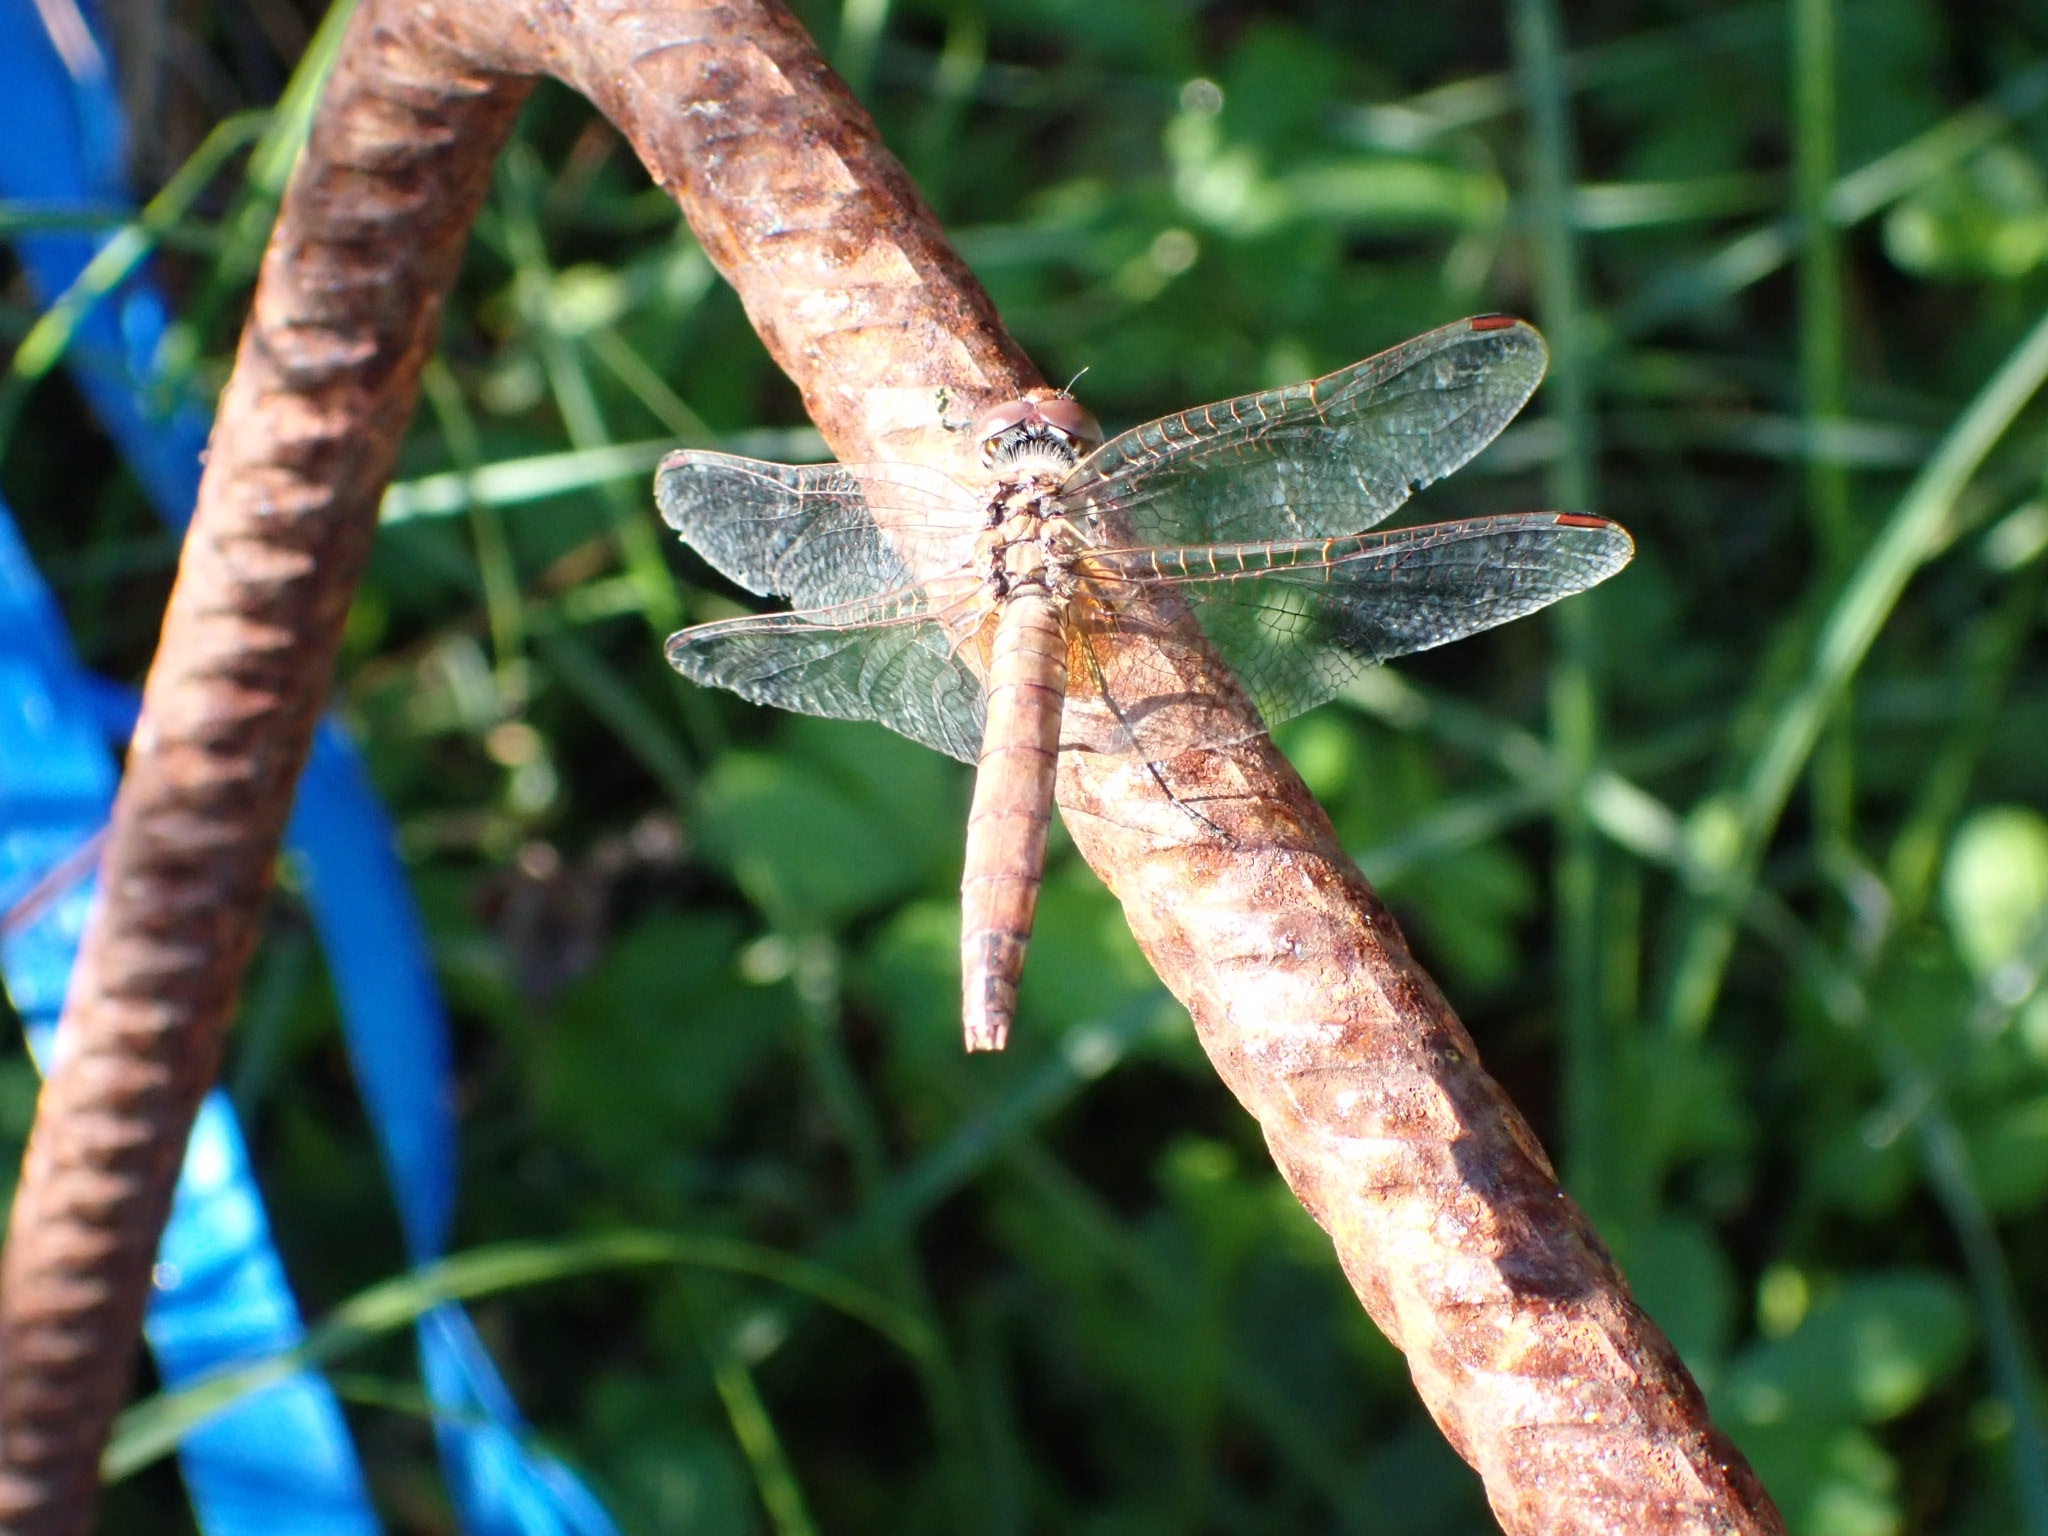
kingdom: Animalia
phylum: Arthropoda
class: Insecta
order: Odonata
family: Libellulidae
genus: Trithemis
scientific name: Trithemis annulata
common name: Violet dropwing
